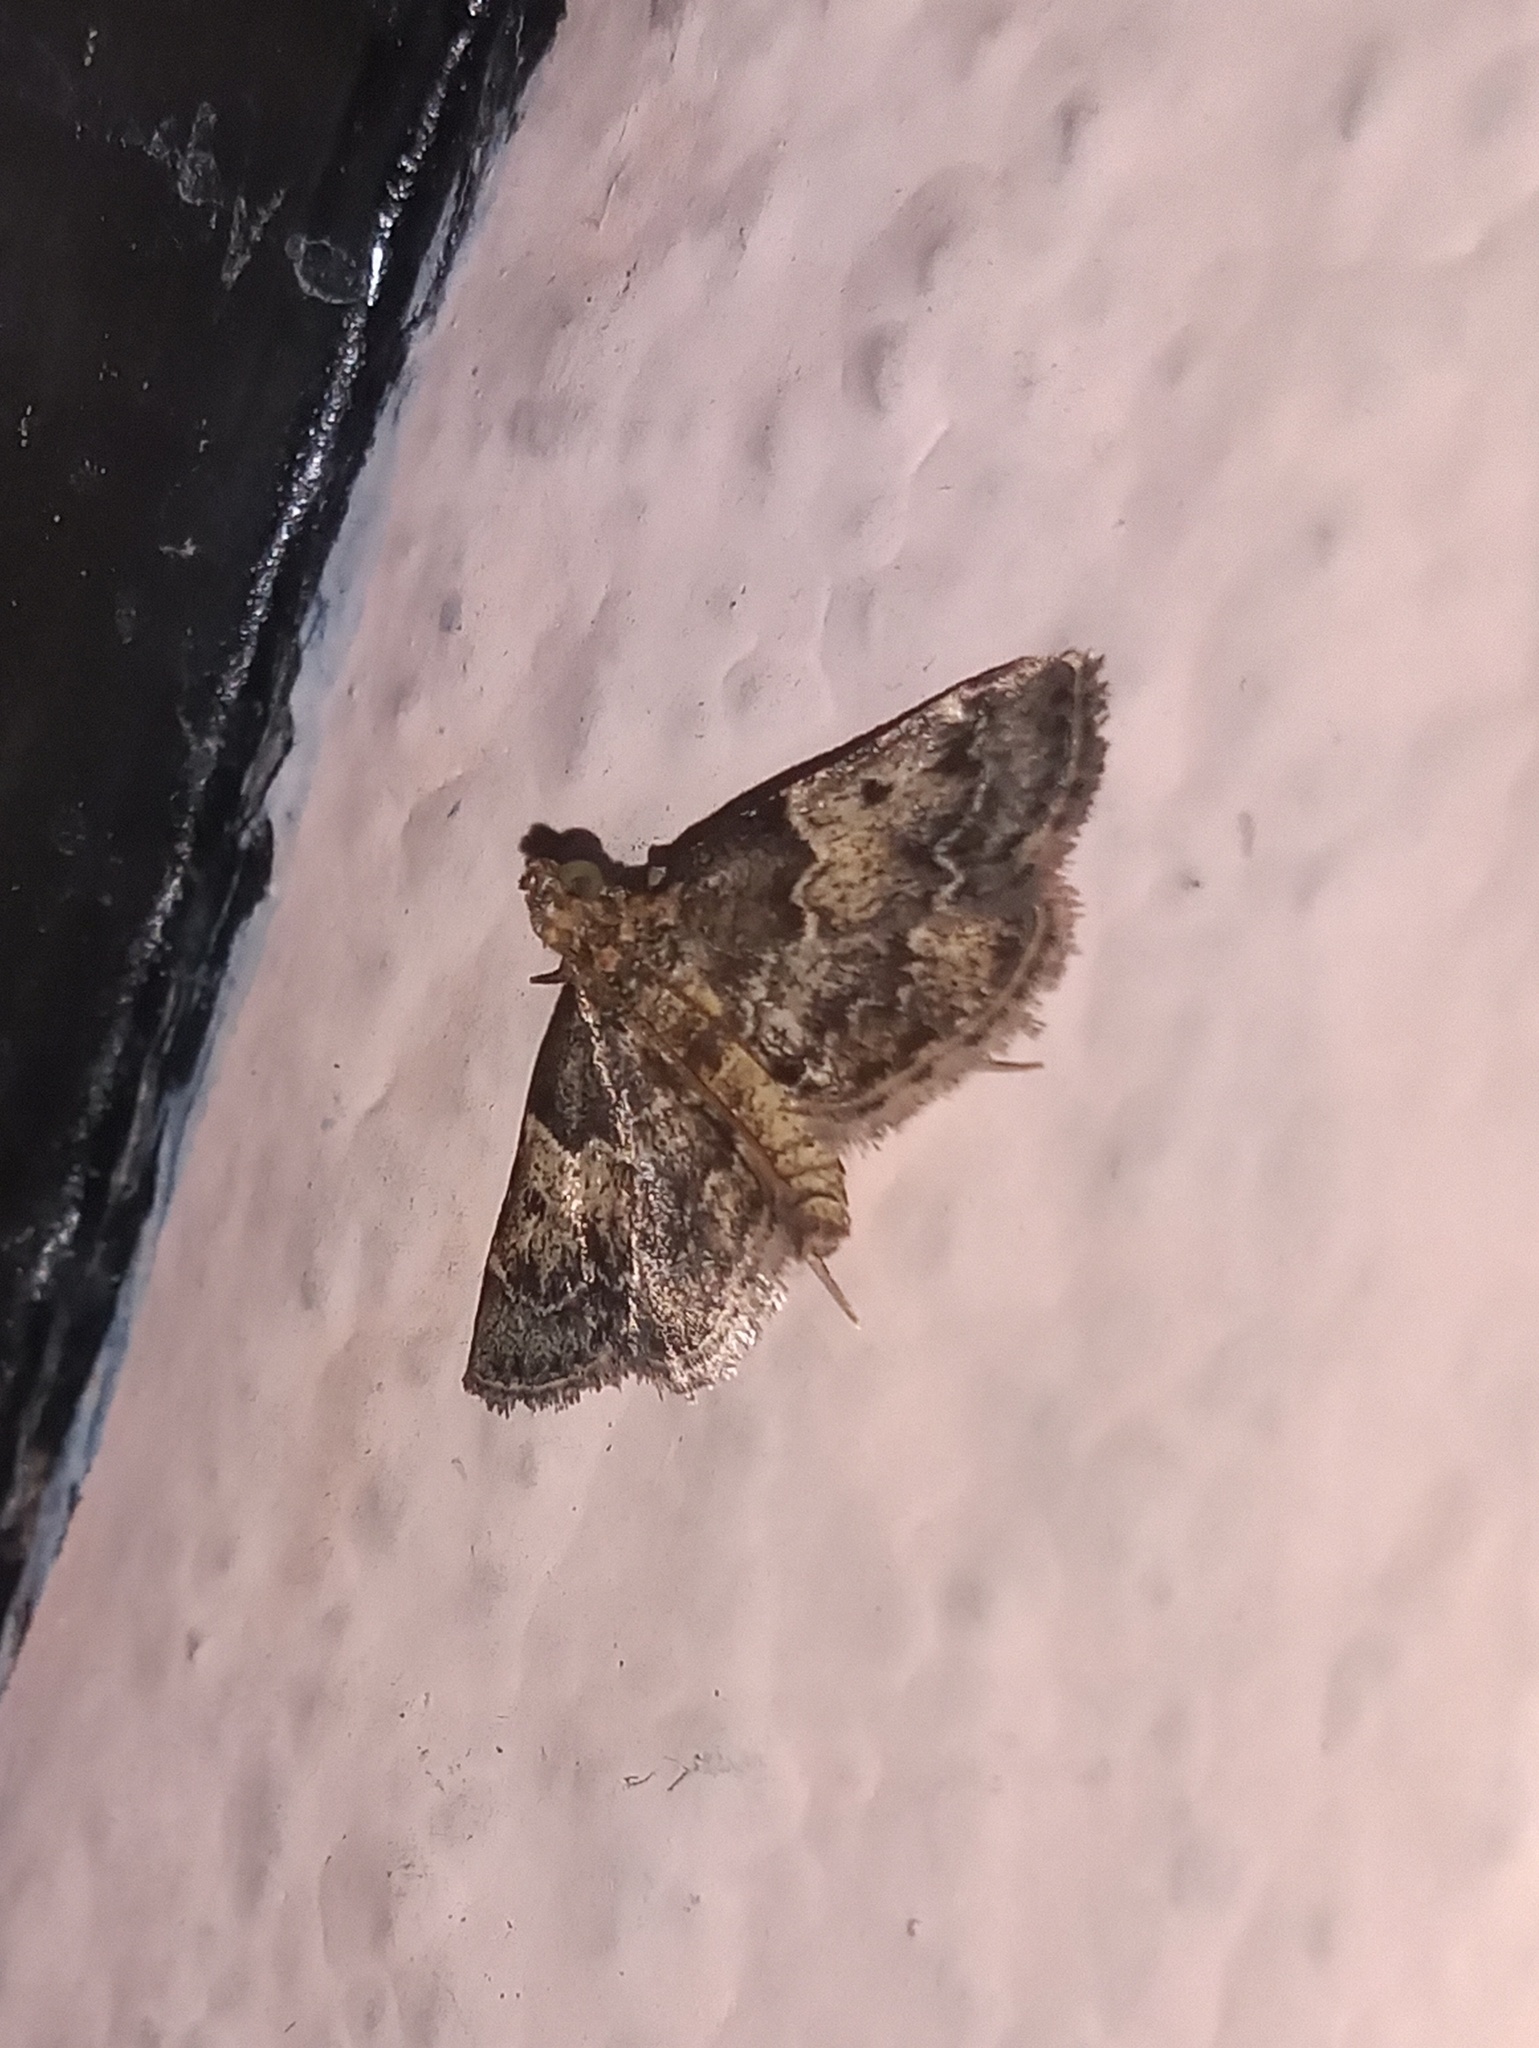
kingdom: Animalia
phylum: Arthropoda
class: Insecta
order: Lepidoptera
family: Pyralidae
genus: Pyralis
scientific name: Pyralis manihotalis
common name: Moth
